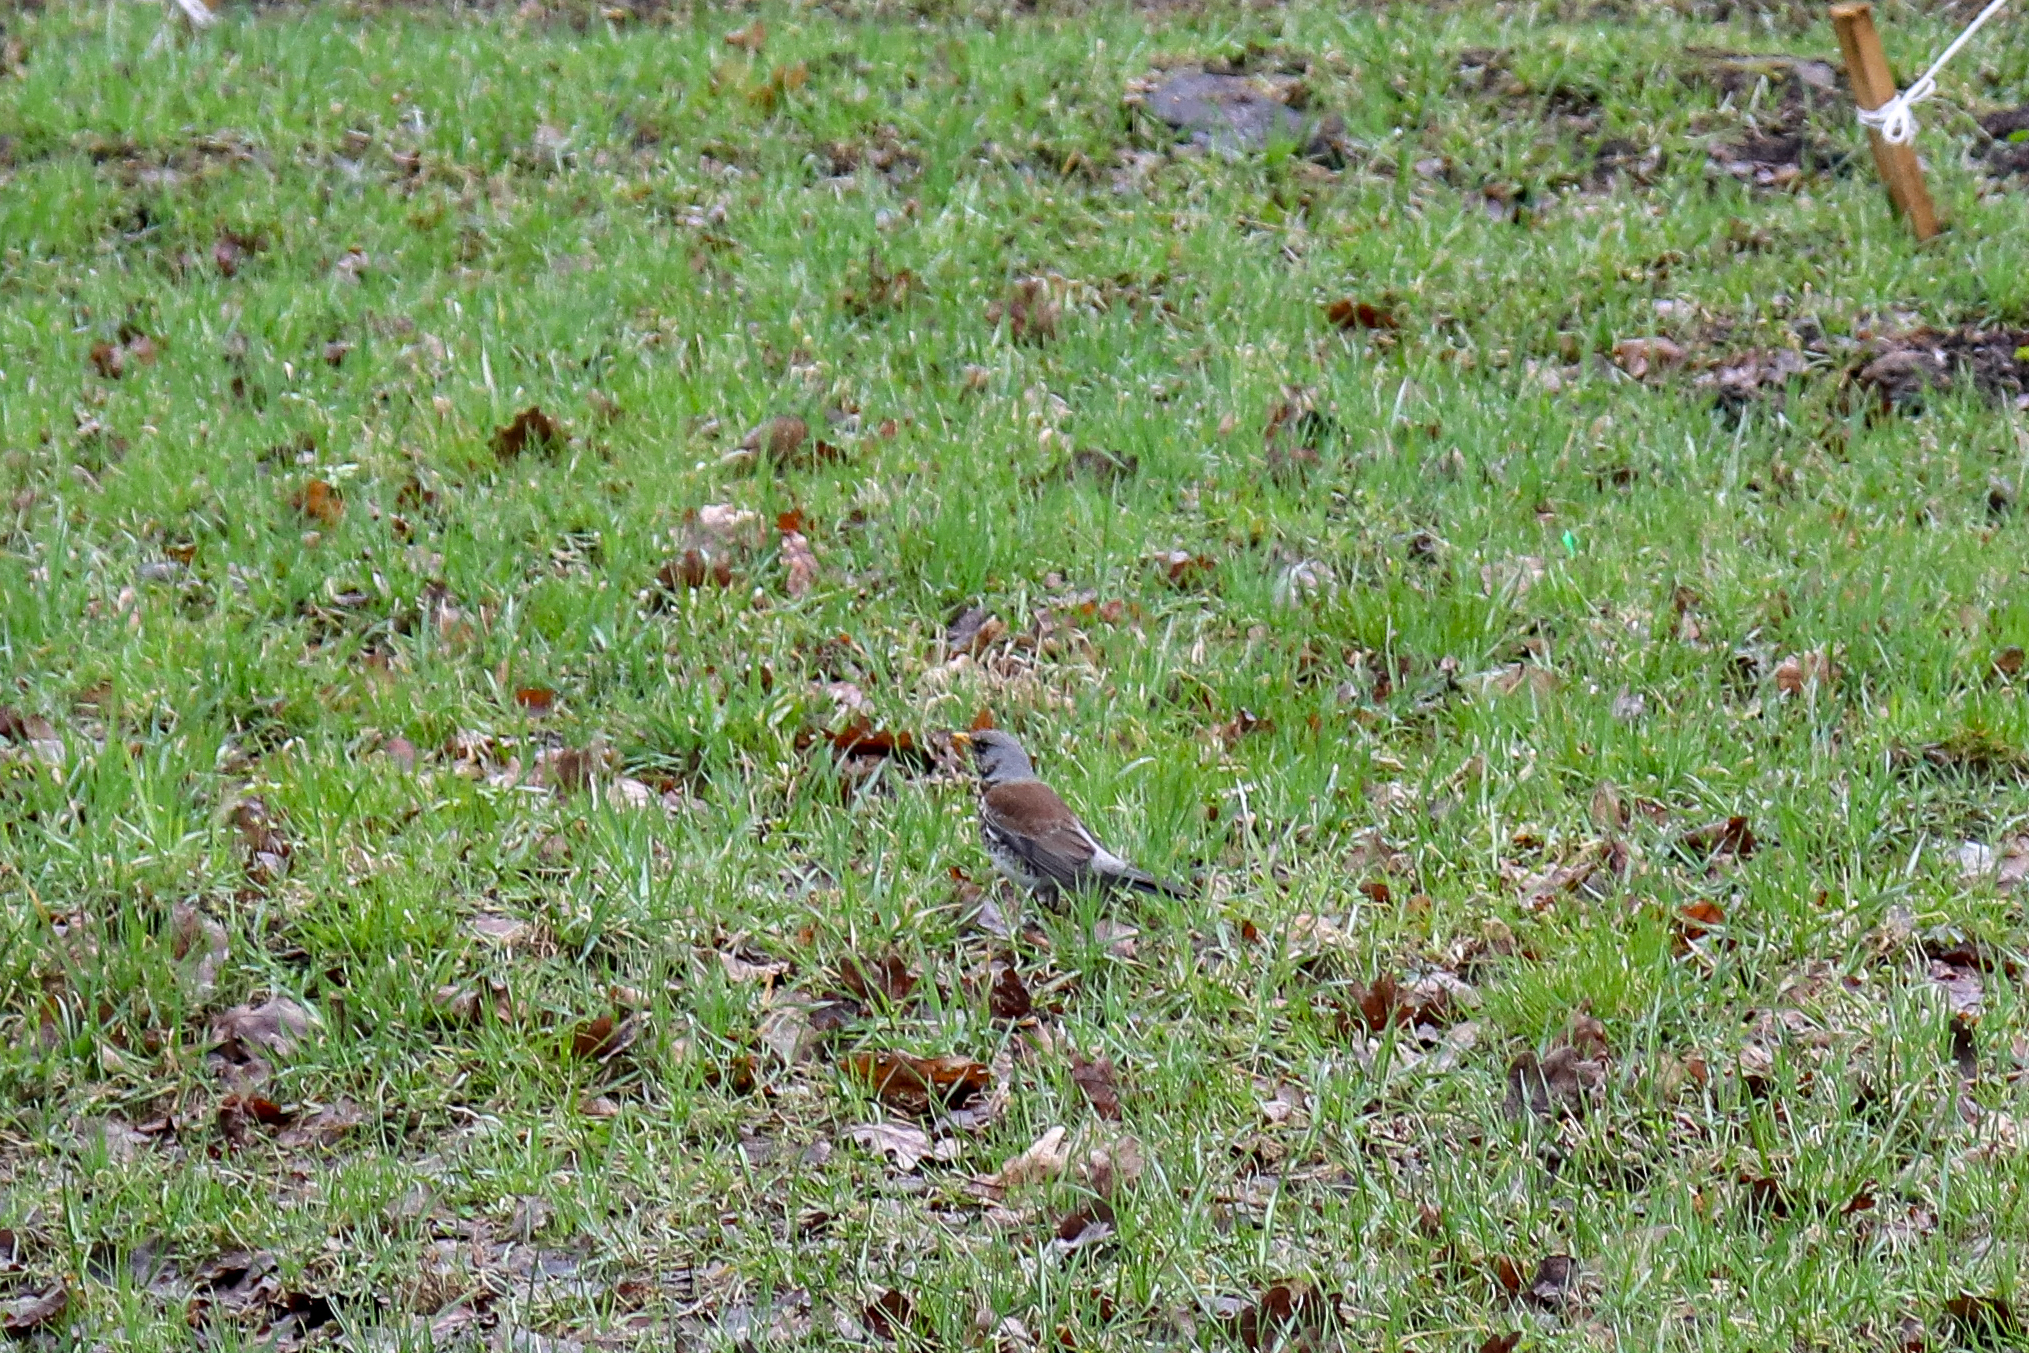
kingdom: Animalia
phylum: Chordata
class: Aves
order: Passeriformes
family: Turdidae
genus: Turdus
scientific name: Turdus pilaris
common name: Fieldfare
